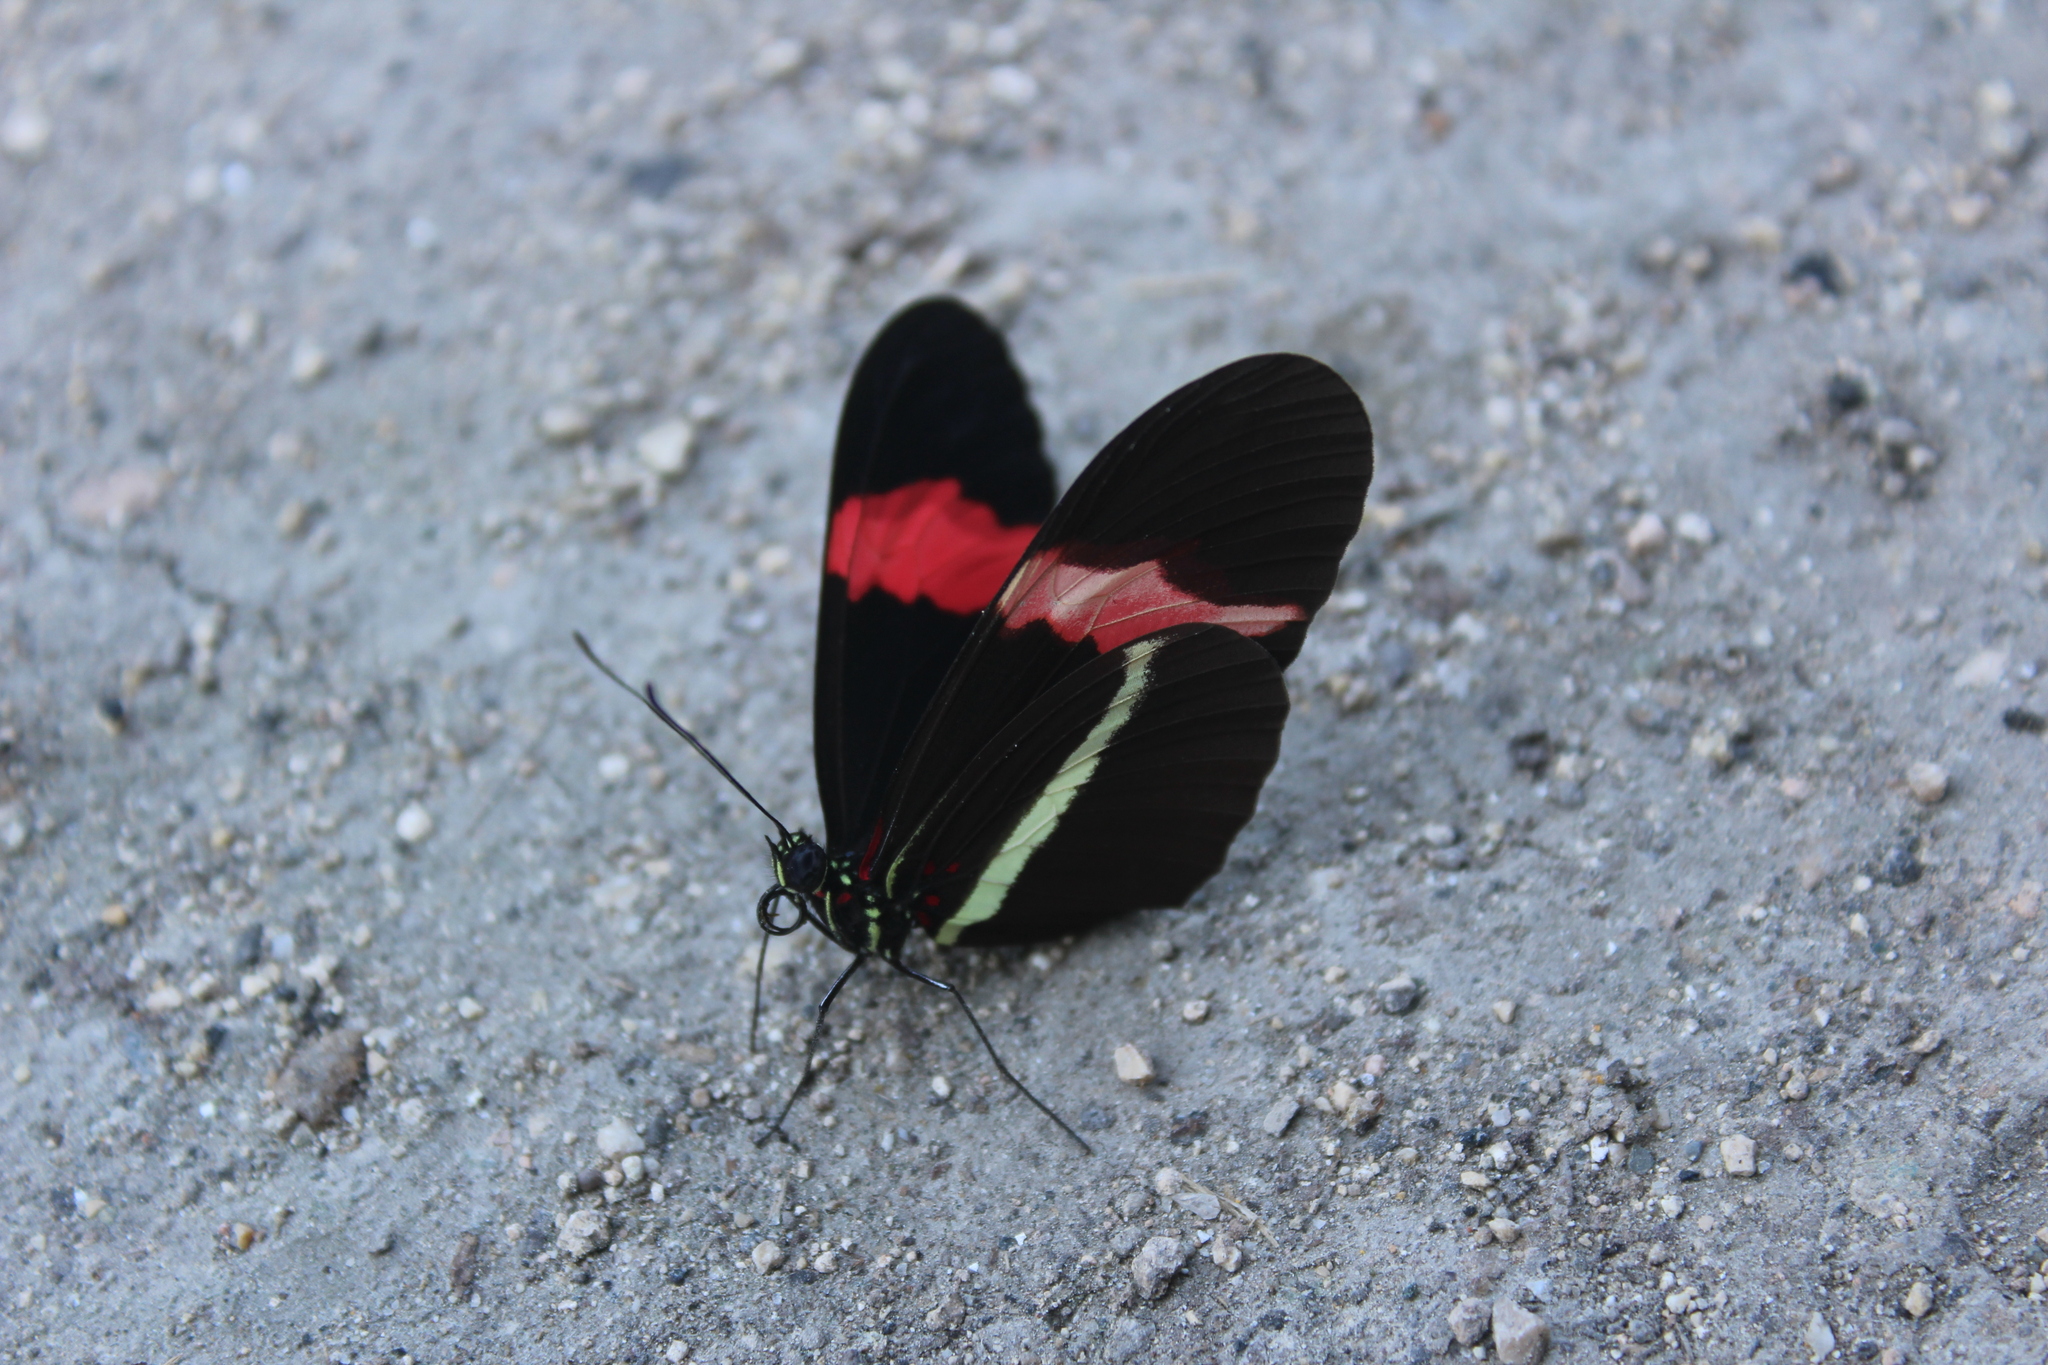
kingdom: Animalia
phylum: Arthropoda
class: Insecta
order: Lepidoptera
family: Nymphalidae
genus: Tirumala
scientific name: Tirumala petiverana
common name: Blue monarch
